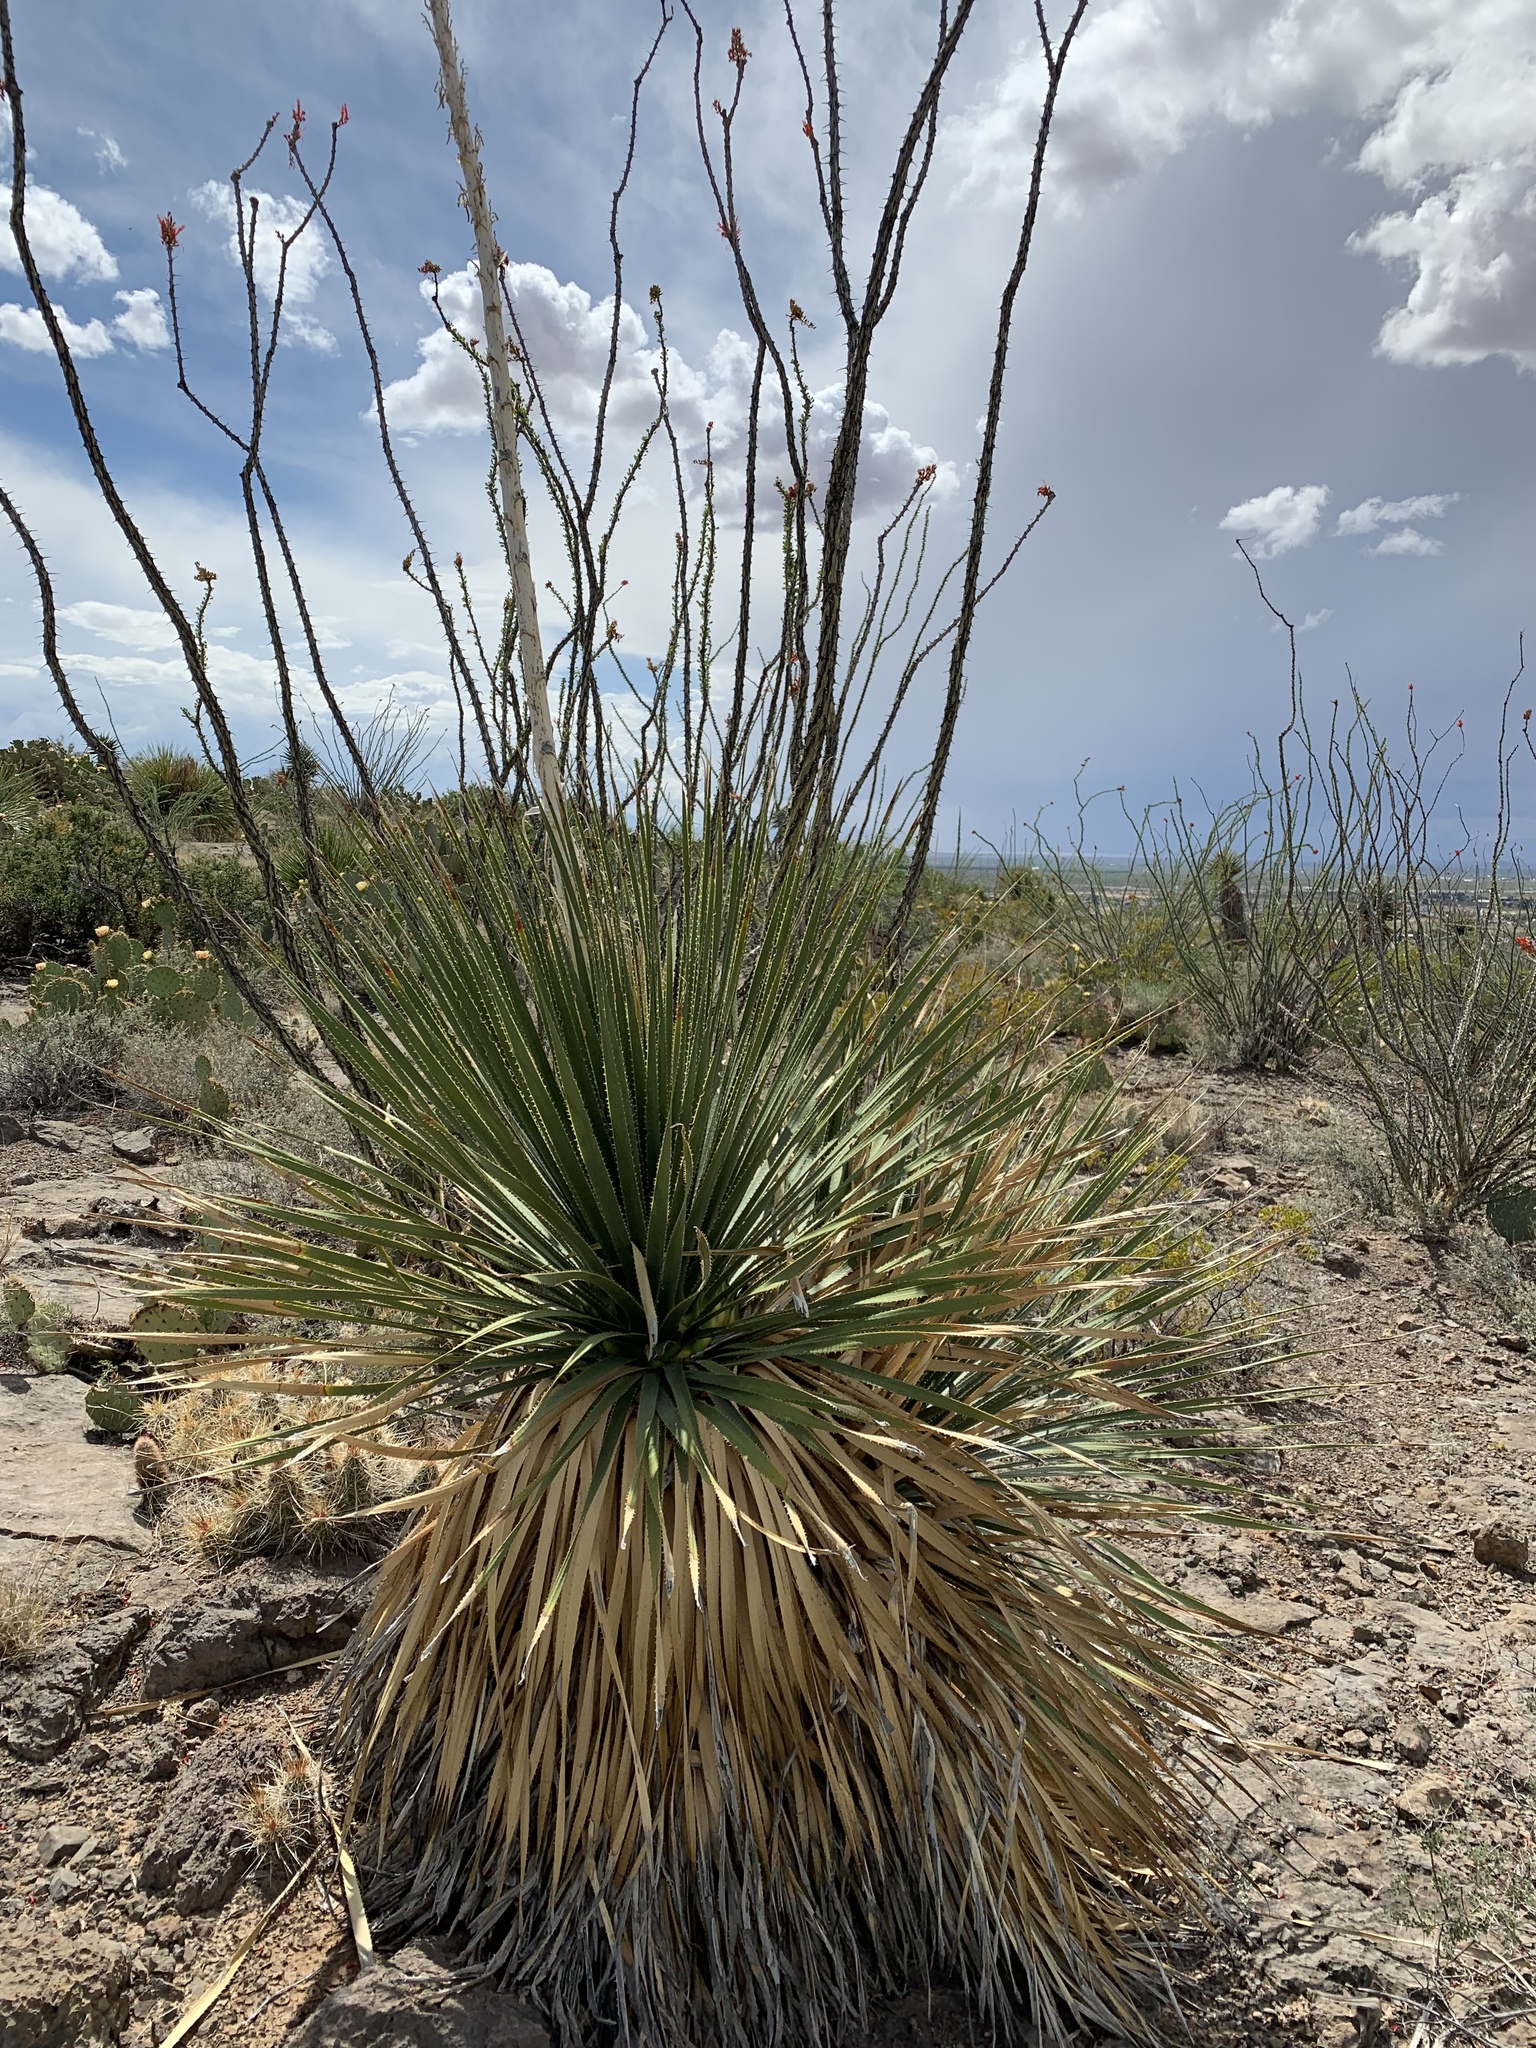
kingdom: Plantae
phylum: Tracheophyta
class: Magnoliopsida
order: Ericales
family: Fouquieriaceae
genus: Fouquieria
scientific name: Fouquieria splendens
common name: Vine-cactus
